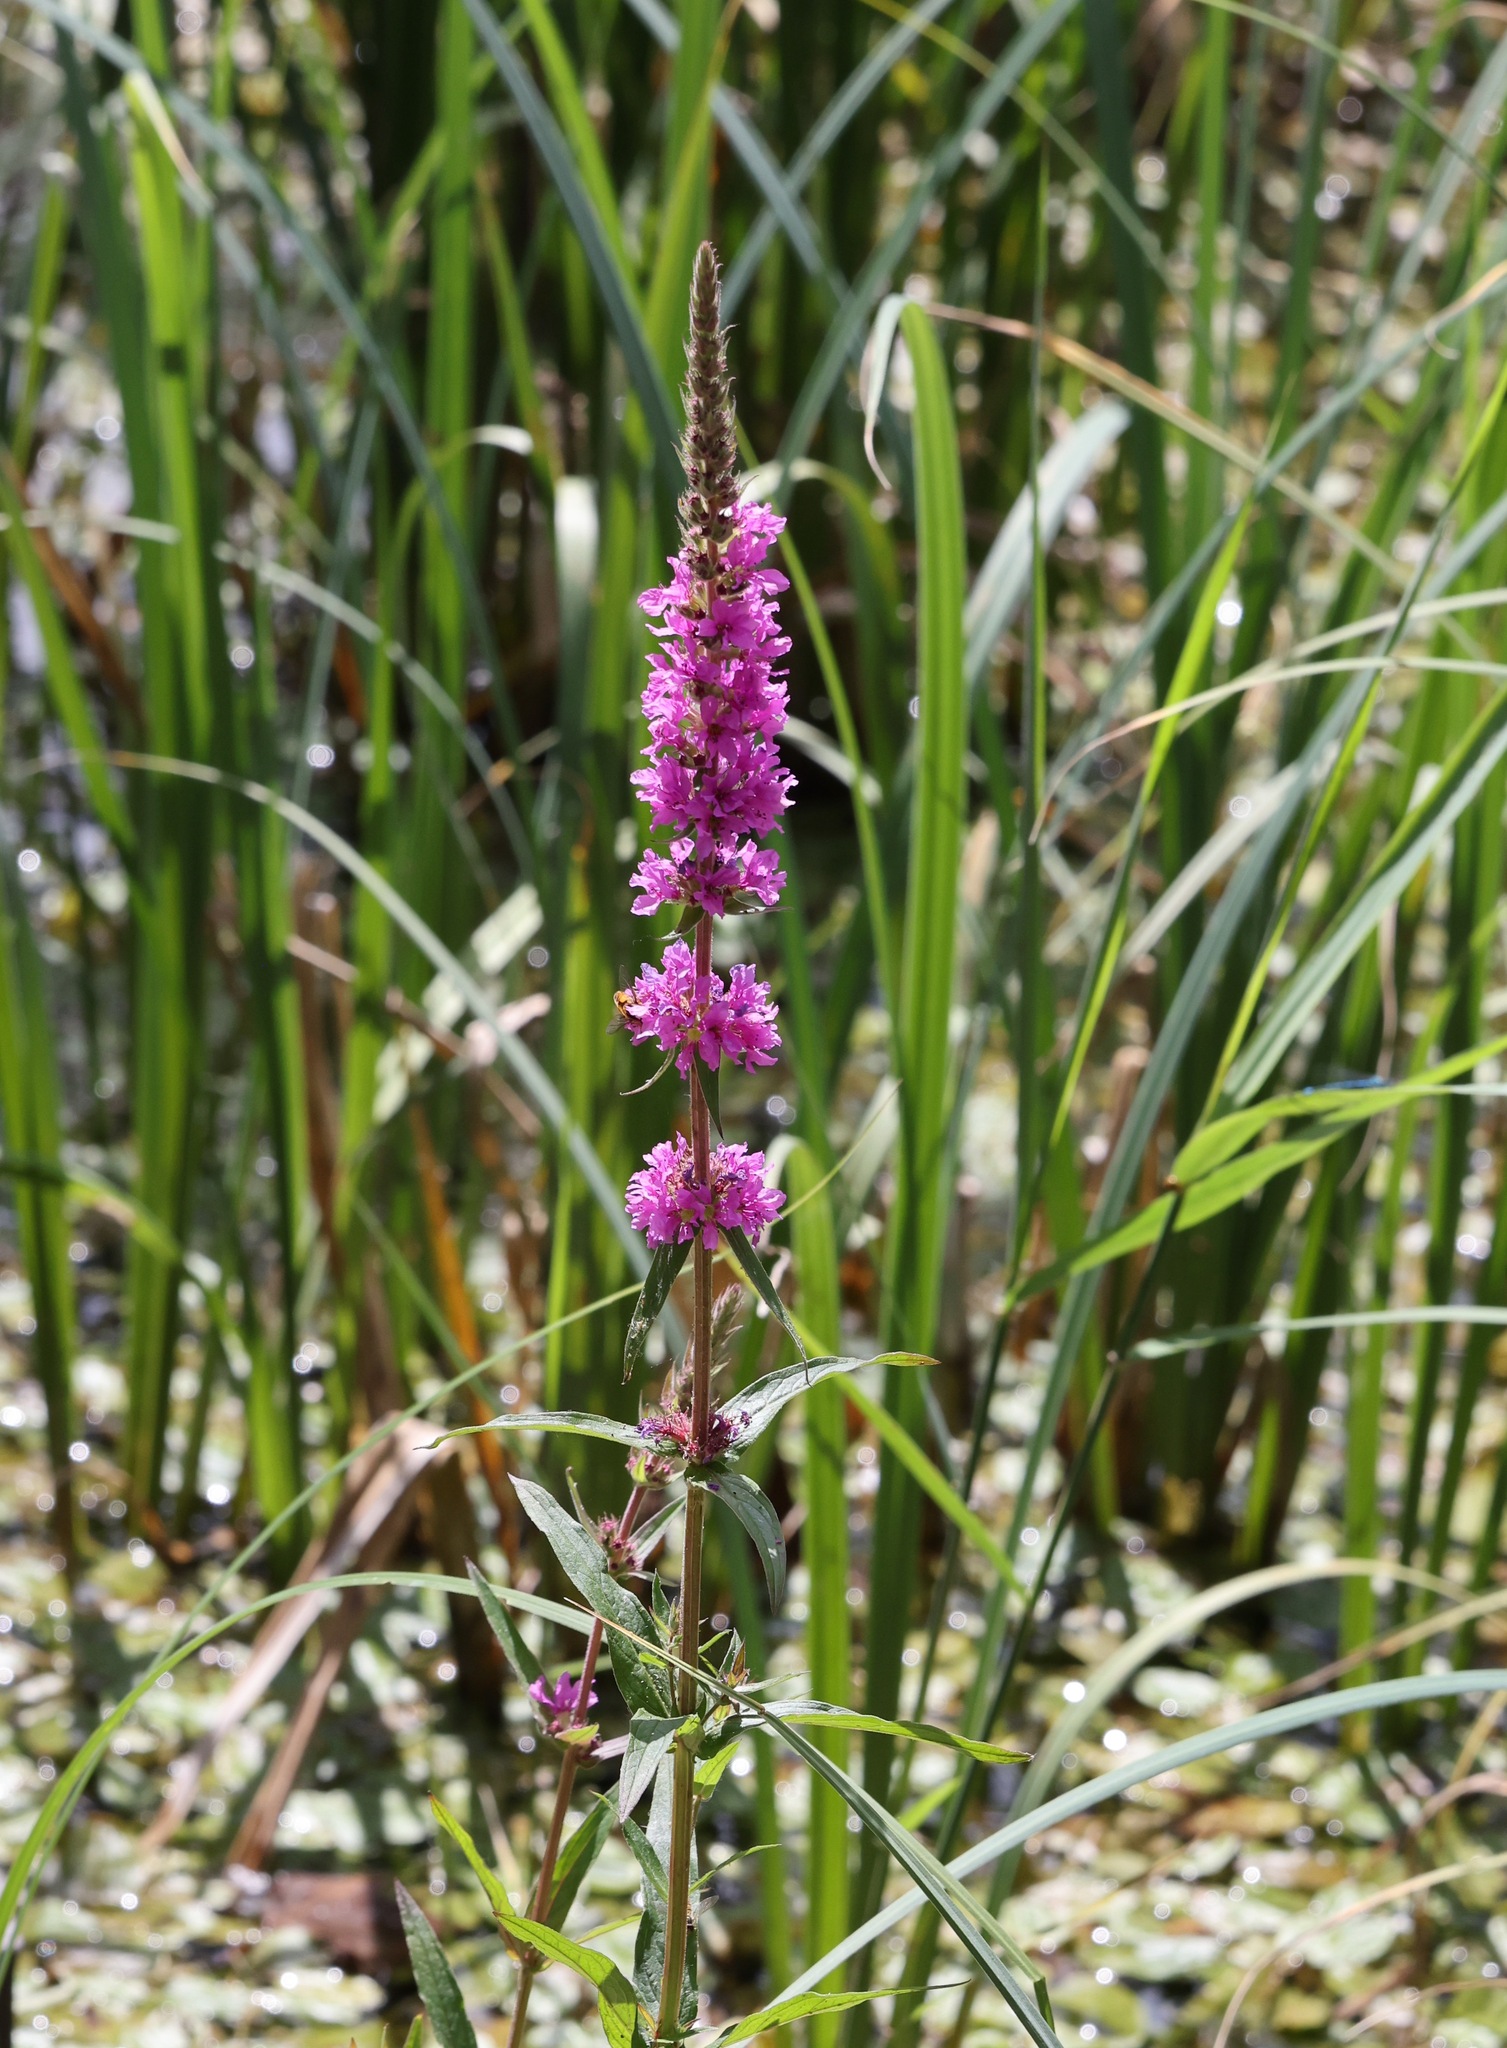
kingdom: Plantae
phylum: Tracheophyta
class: Magnoliopsida
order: Myrtales
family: Lythraceae
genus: Lythrum
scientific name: Lythrum salicaria
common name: Purple loosestrife
